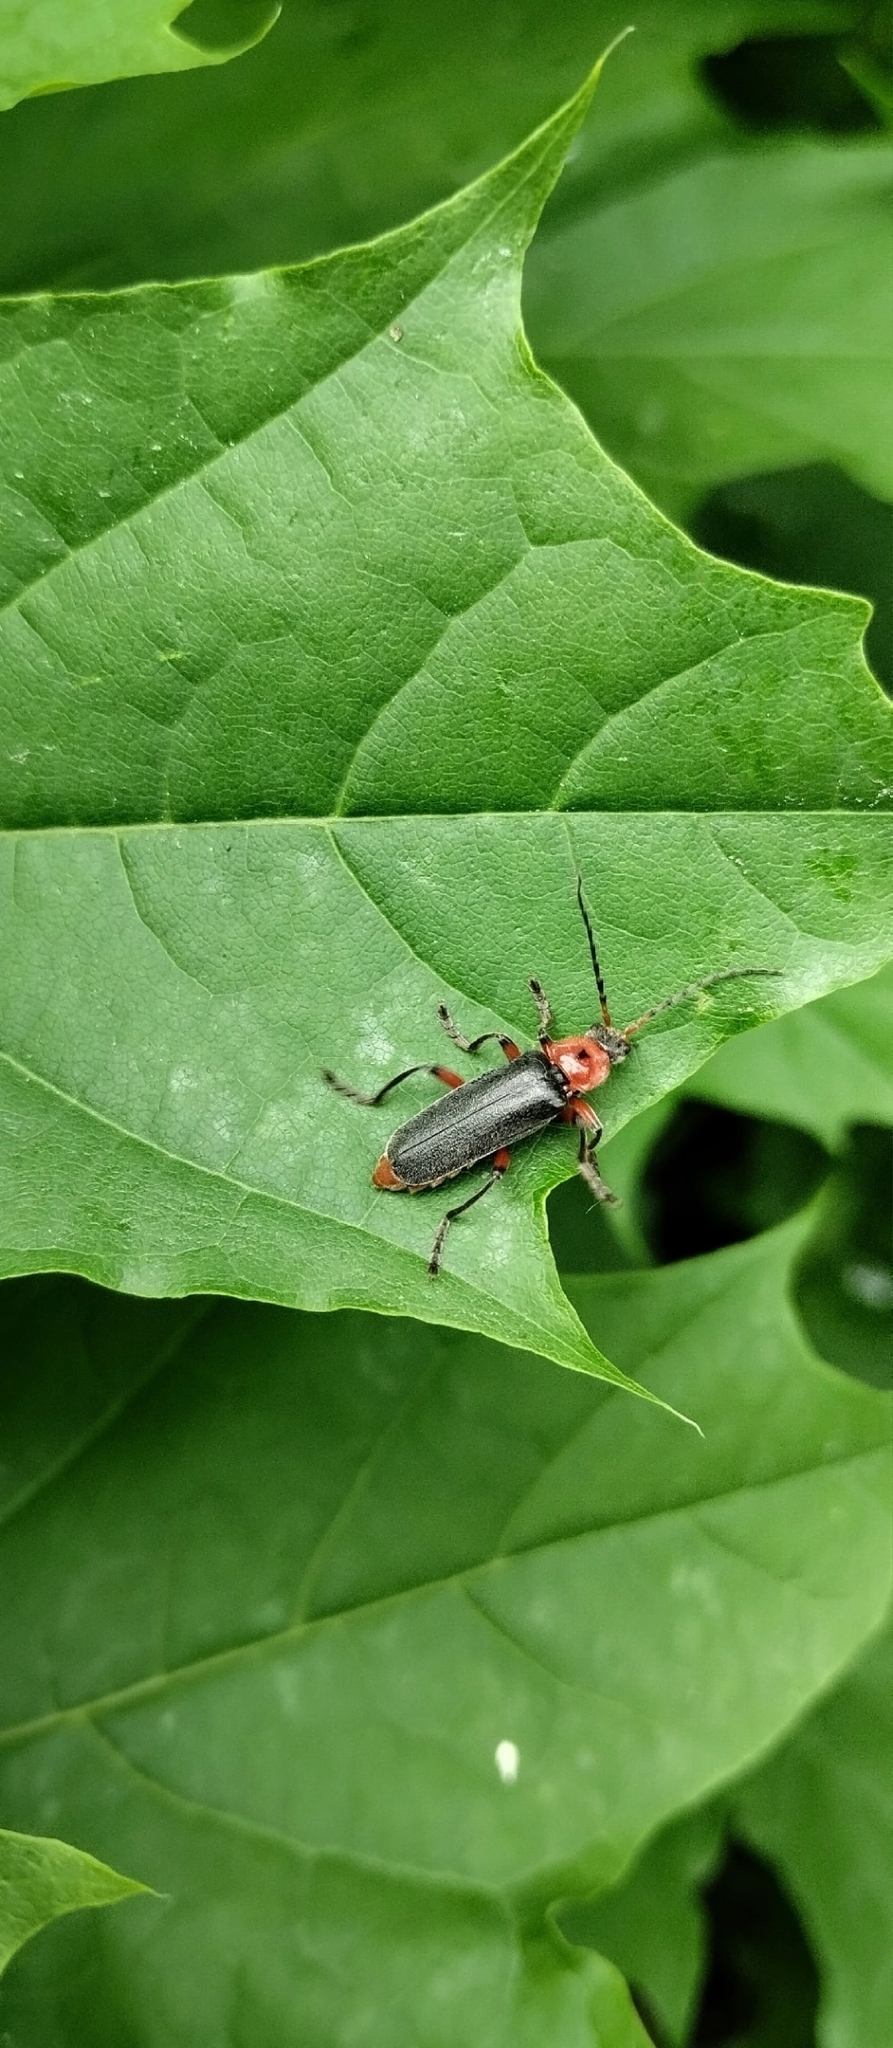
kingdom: Animalia
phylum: Arthropoda
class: Insecta
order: Coleoptera
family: Cantharidae
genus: Cantharis
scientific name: Cantharis rustica
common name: Soldier beetle
